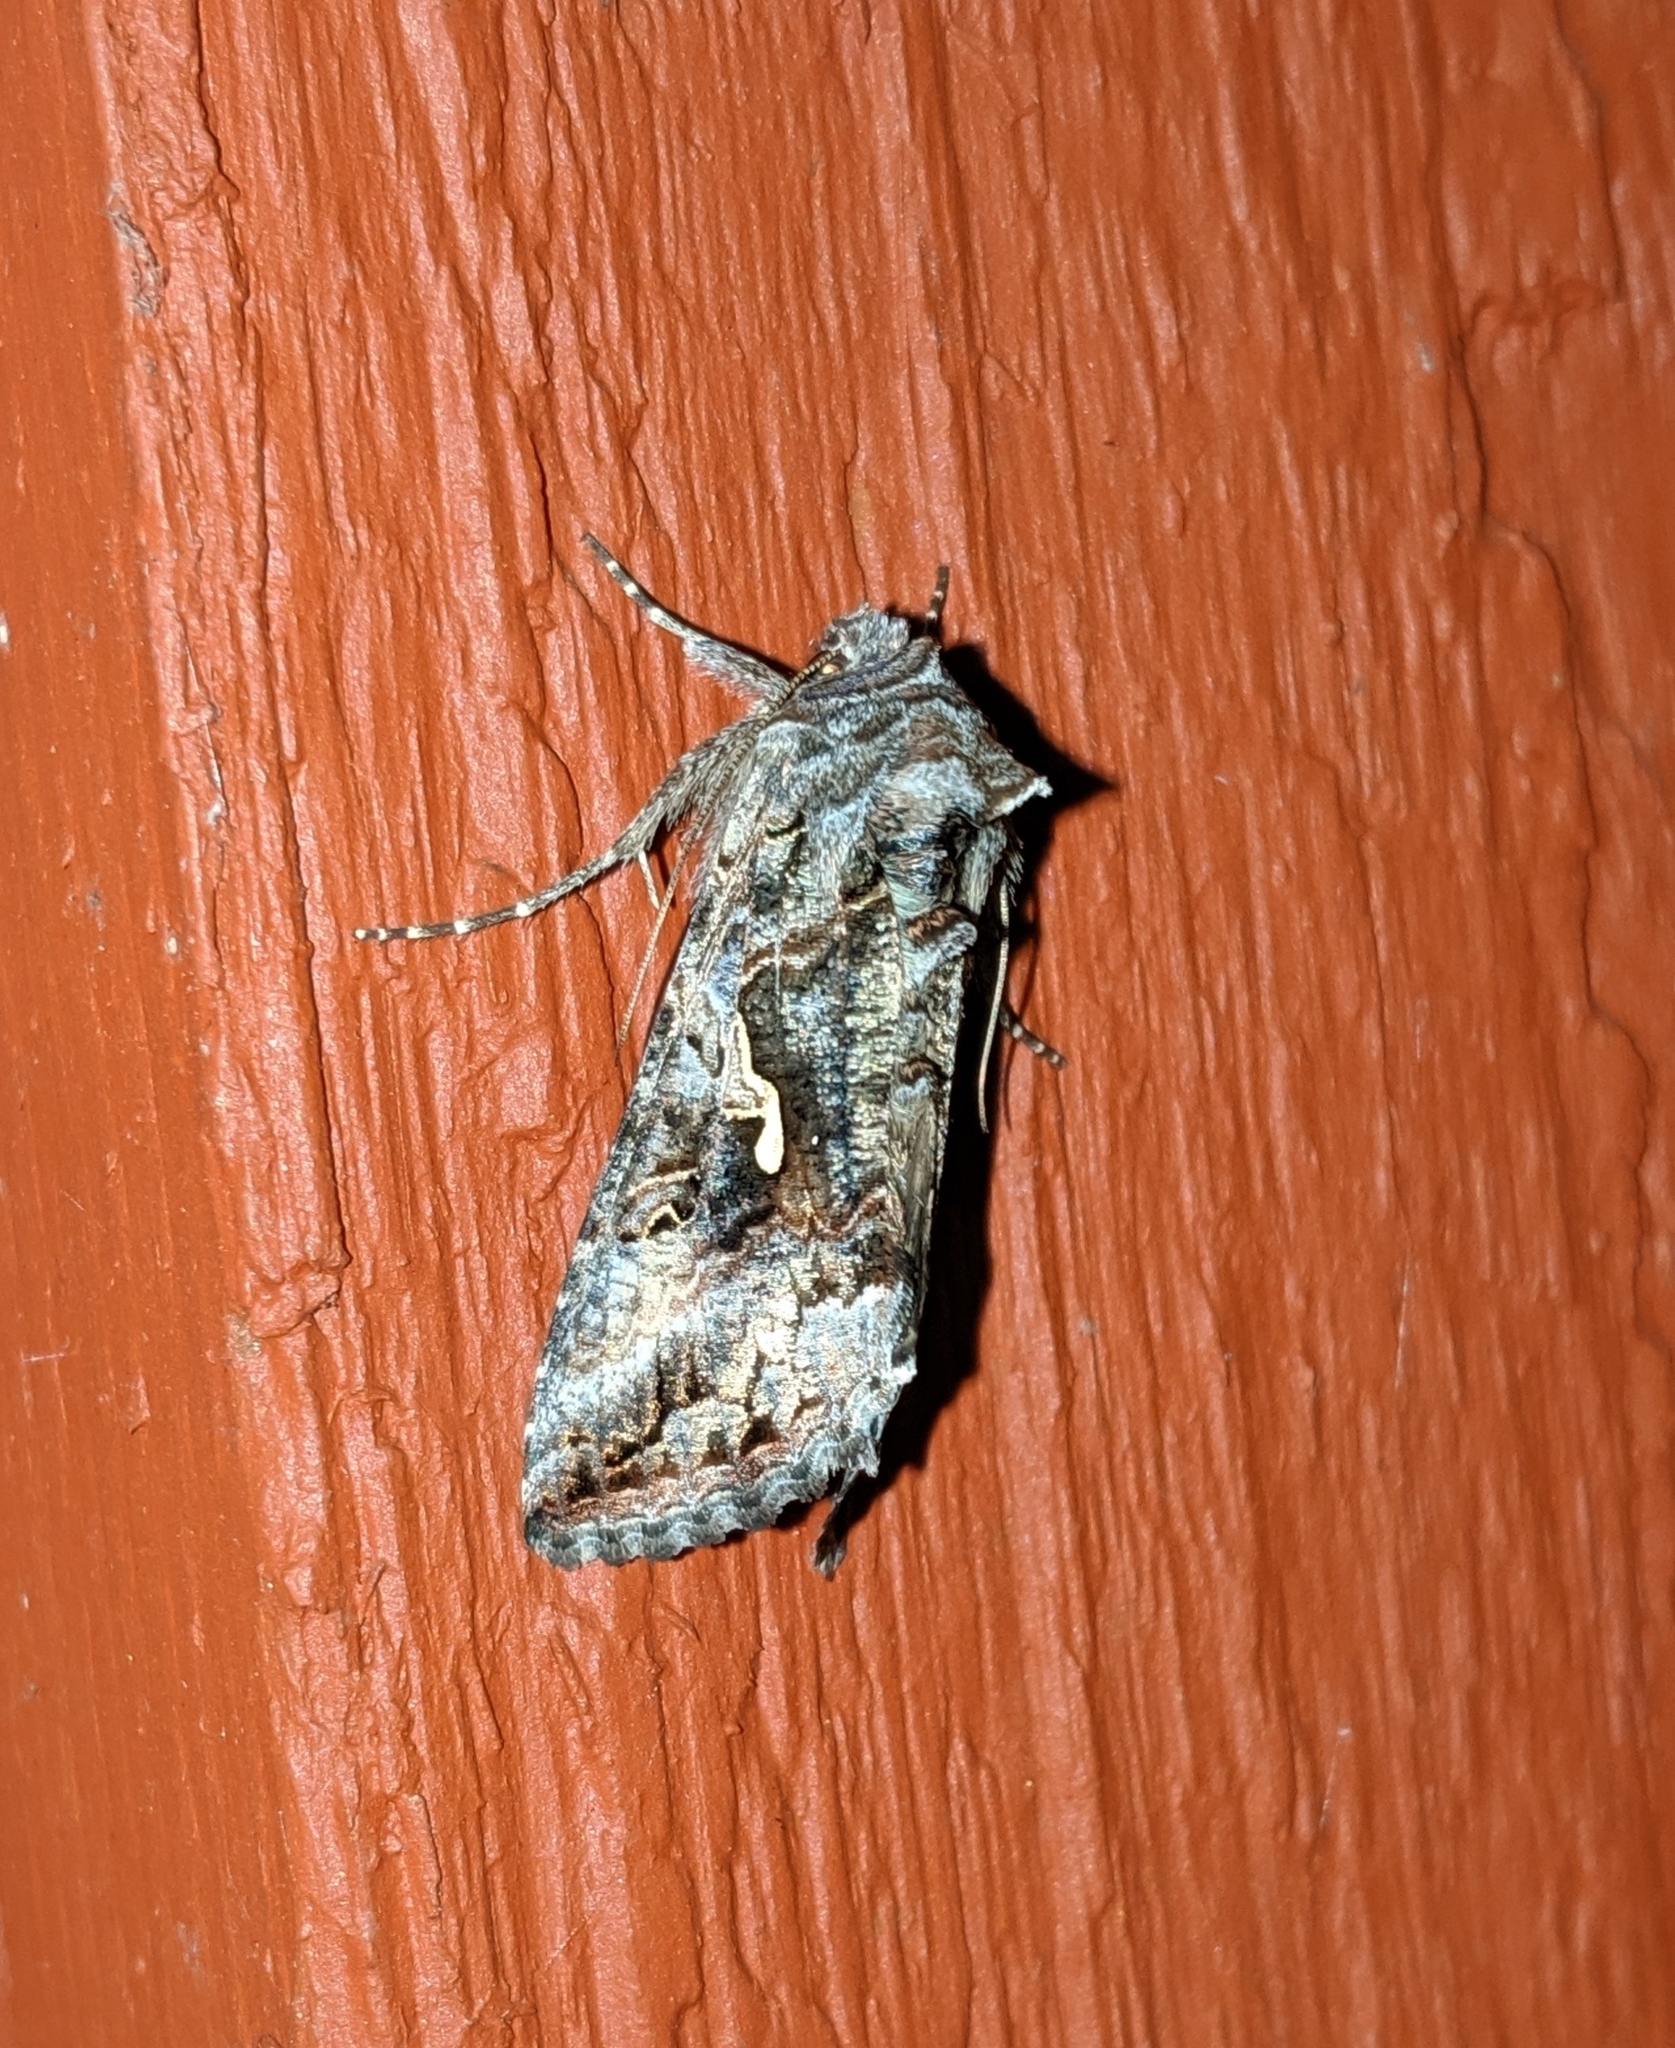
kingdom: Animalia
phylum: Arthropoda
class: Insecta
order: Lepidoptera
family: Noctuidae
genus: Autographa
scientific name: Autographa californica
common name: Alfalfa looper
